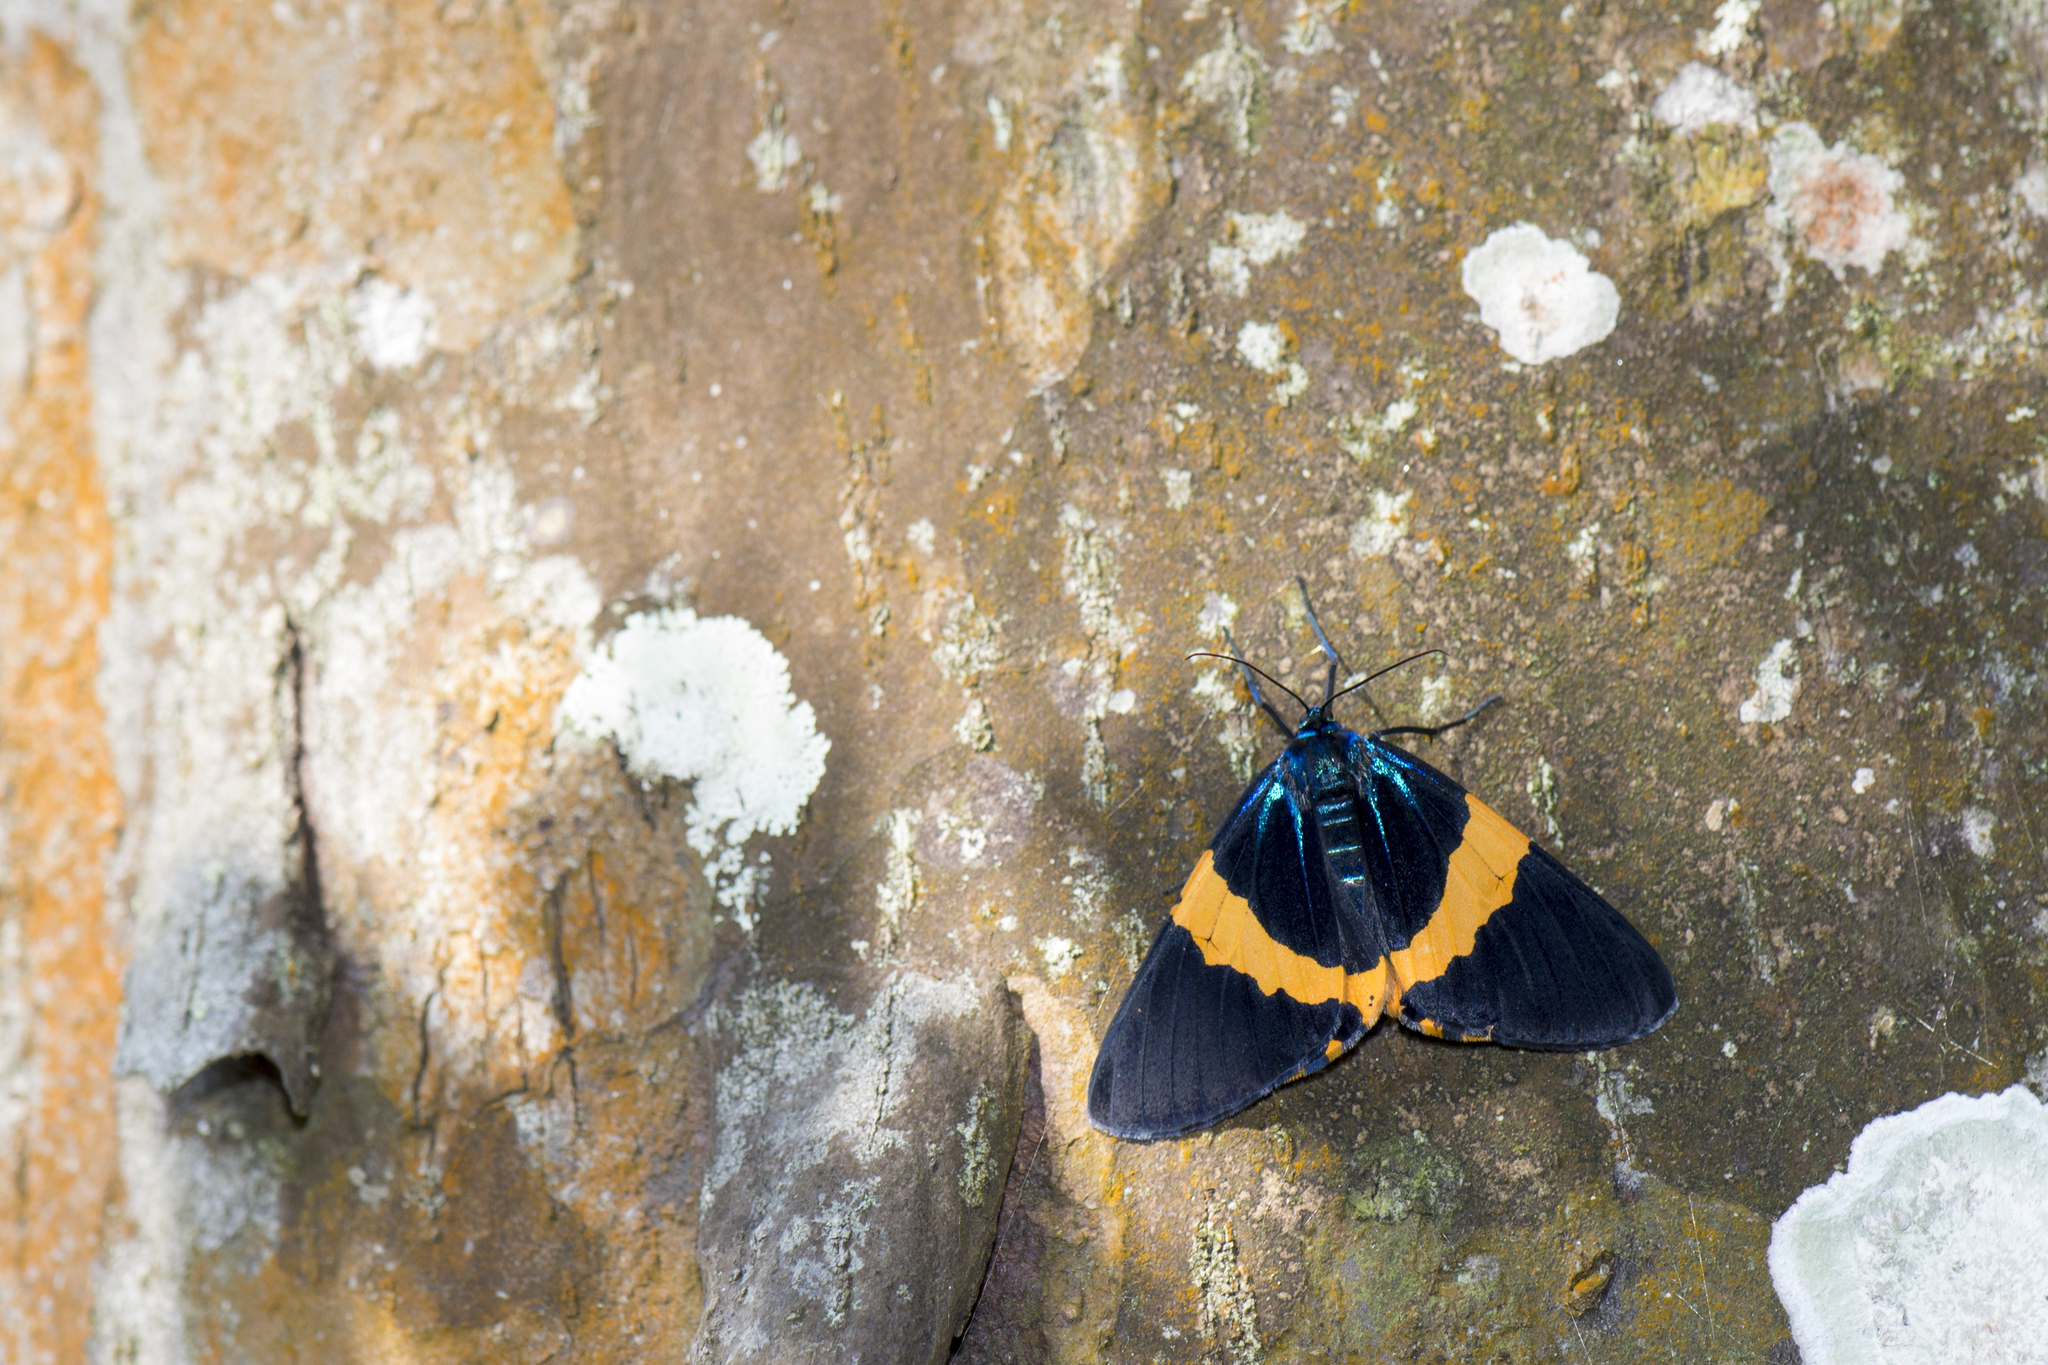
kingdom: Animalia
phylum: Arthropoda
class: Insecta
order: Lepidoptera
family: Geometridae
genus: Milionia
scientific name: Milionia basalis
